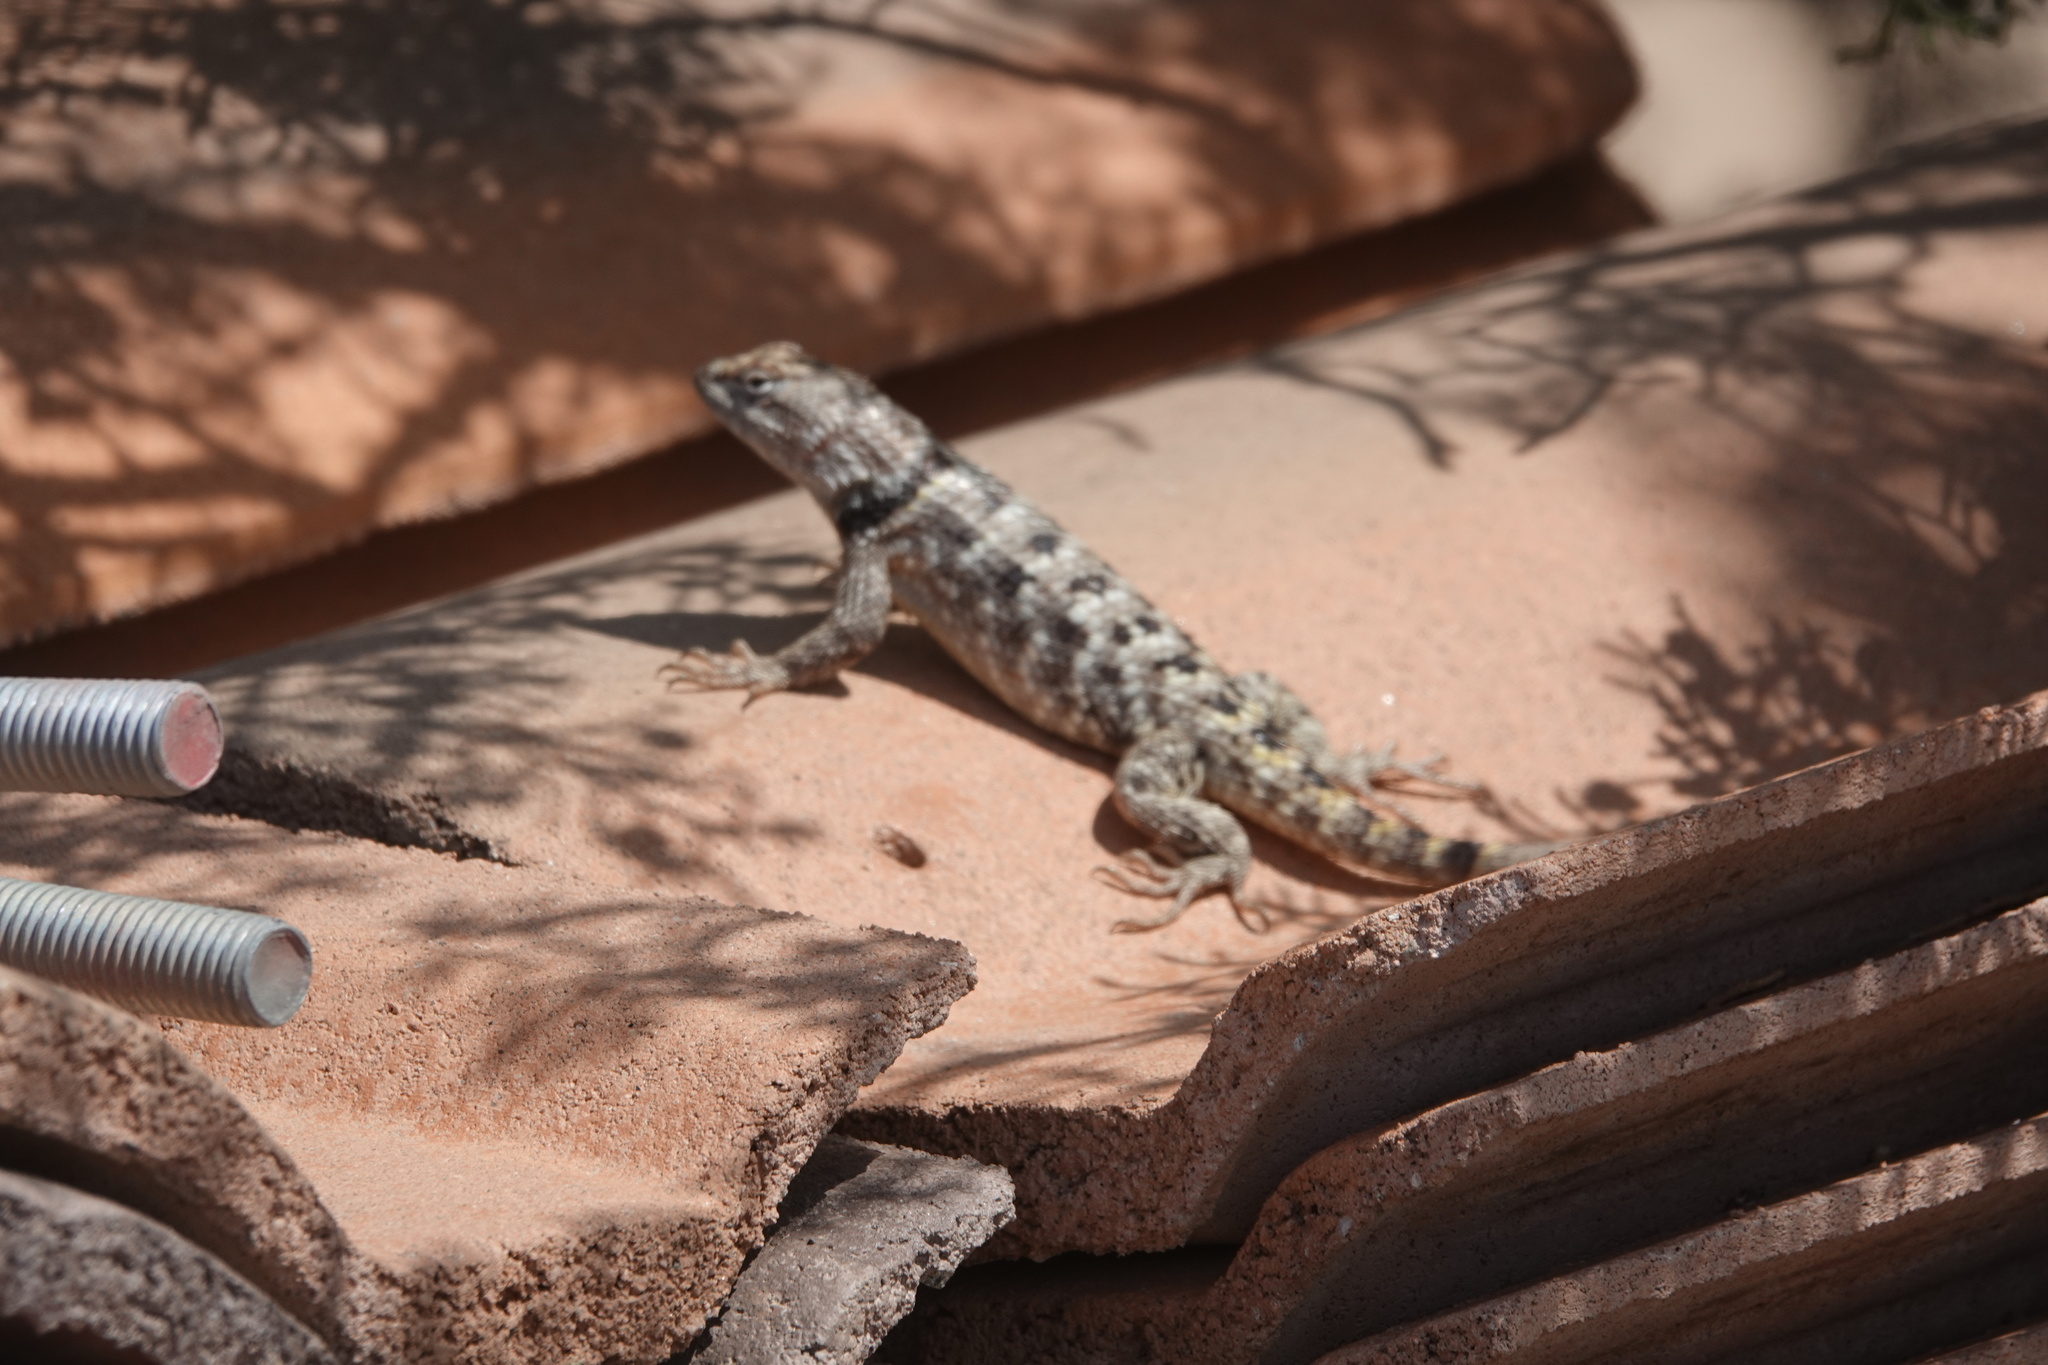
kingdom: Animalia
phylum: Chordata
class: Squamata
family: Phrynosomatidae
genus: Sceloporus
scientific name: Sceloporus uniformis
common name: Yellow-backed spiny lizard
